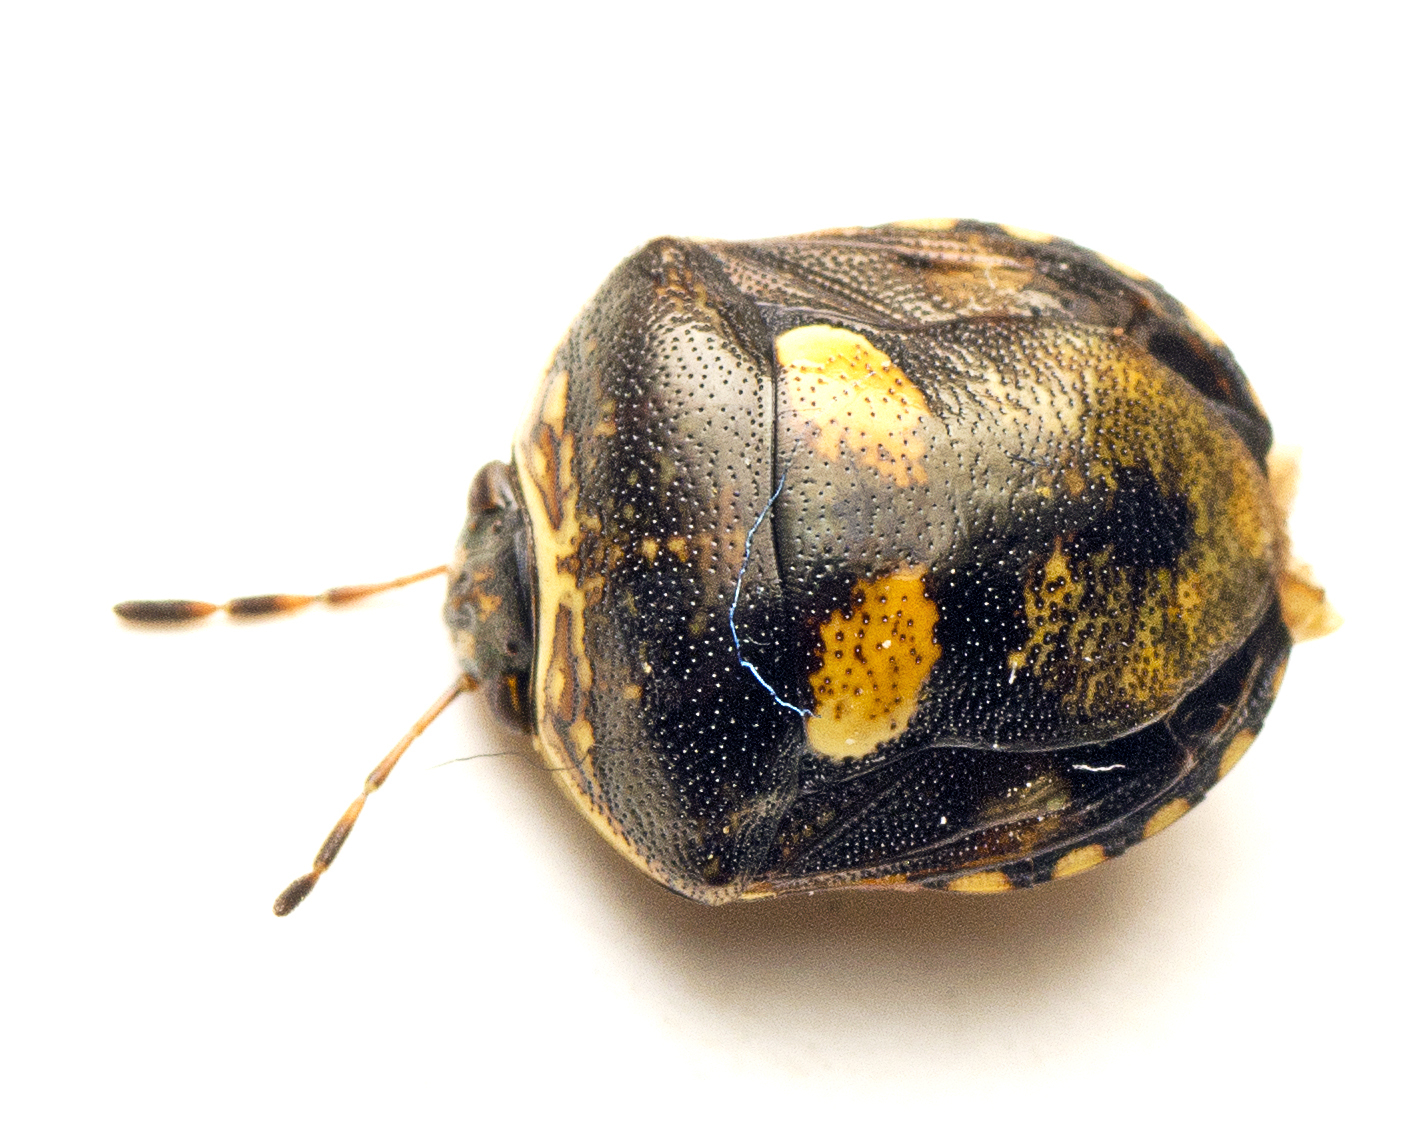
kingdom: Animalia
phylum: Arthropoda
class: Insecta
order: Hemiptera
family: Pentatomidae
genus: Aspideurus
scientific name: Aspideurus
